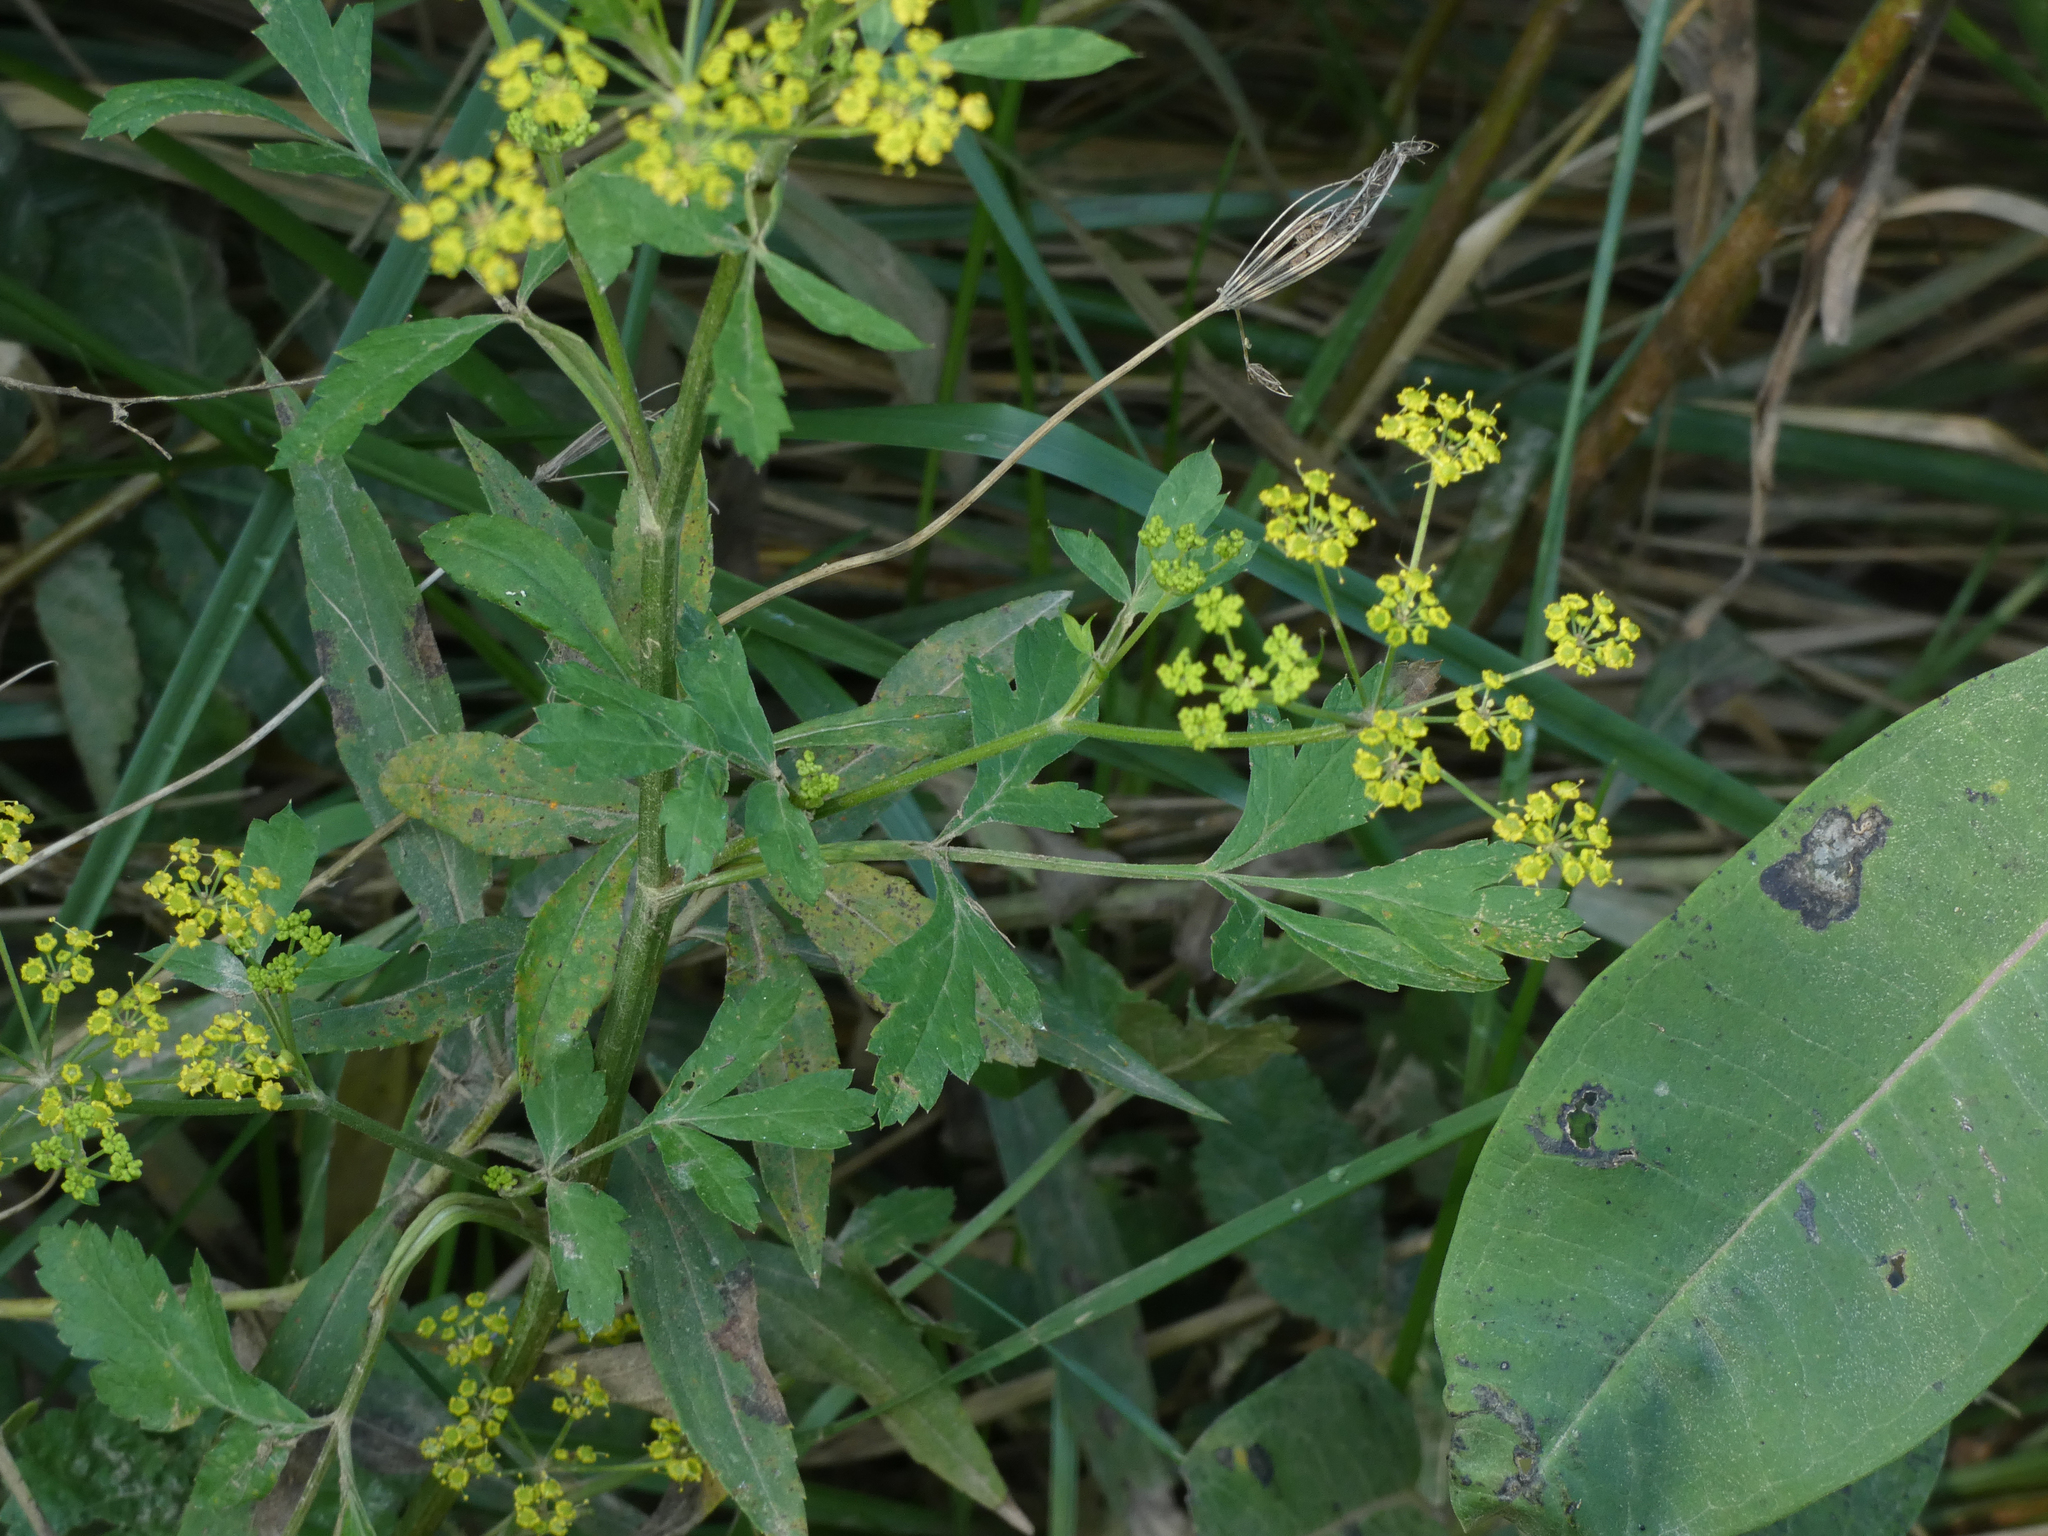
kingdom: Plantae
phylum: Tracheophyta
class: Magnoliopsida
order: Apiales
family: Apiaceae
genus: Pastinaca
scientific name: Pastinaca sativa
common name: Wild parsnip
